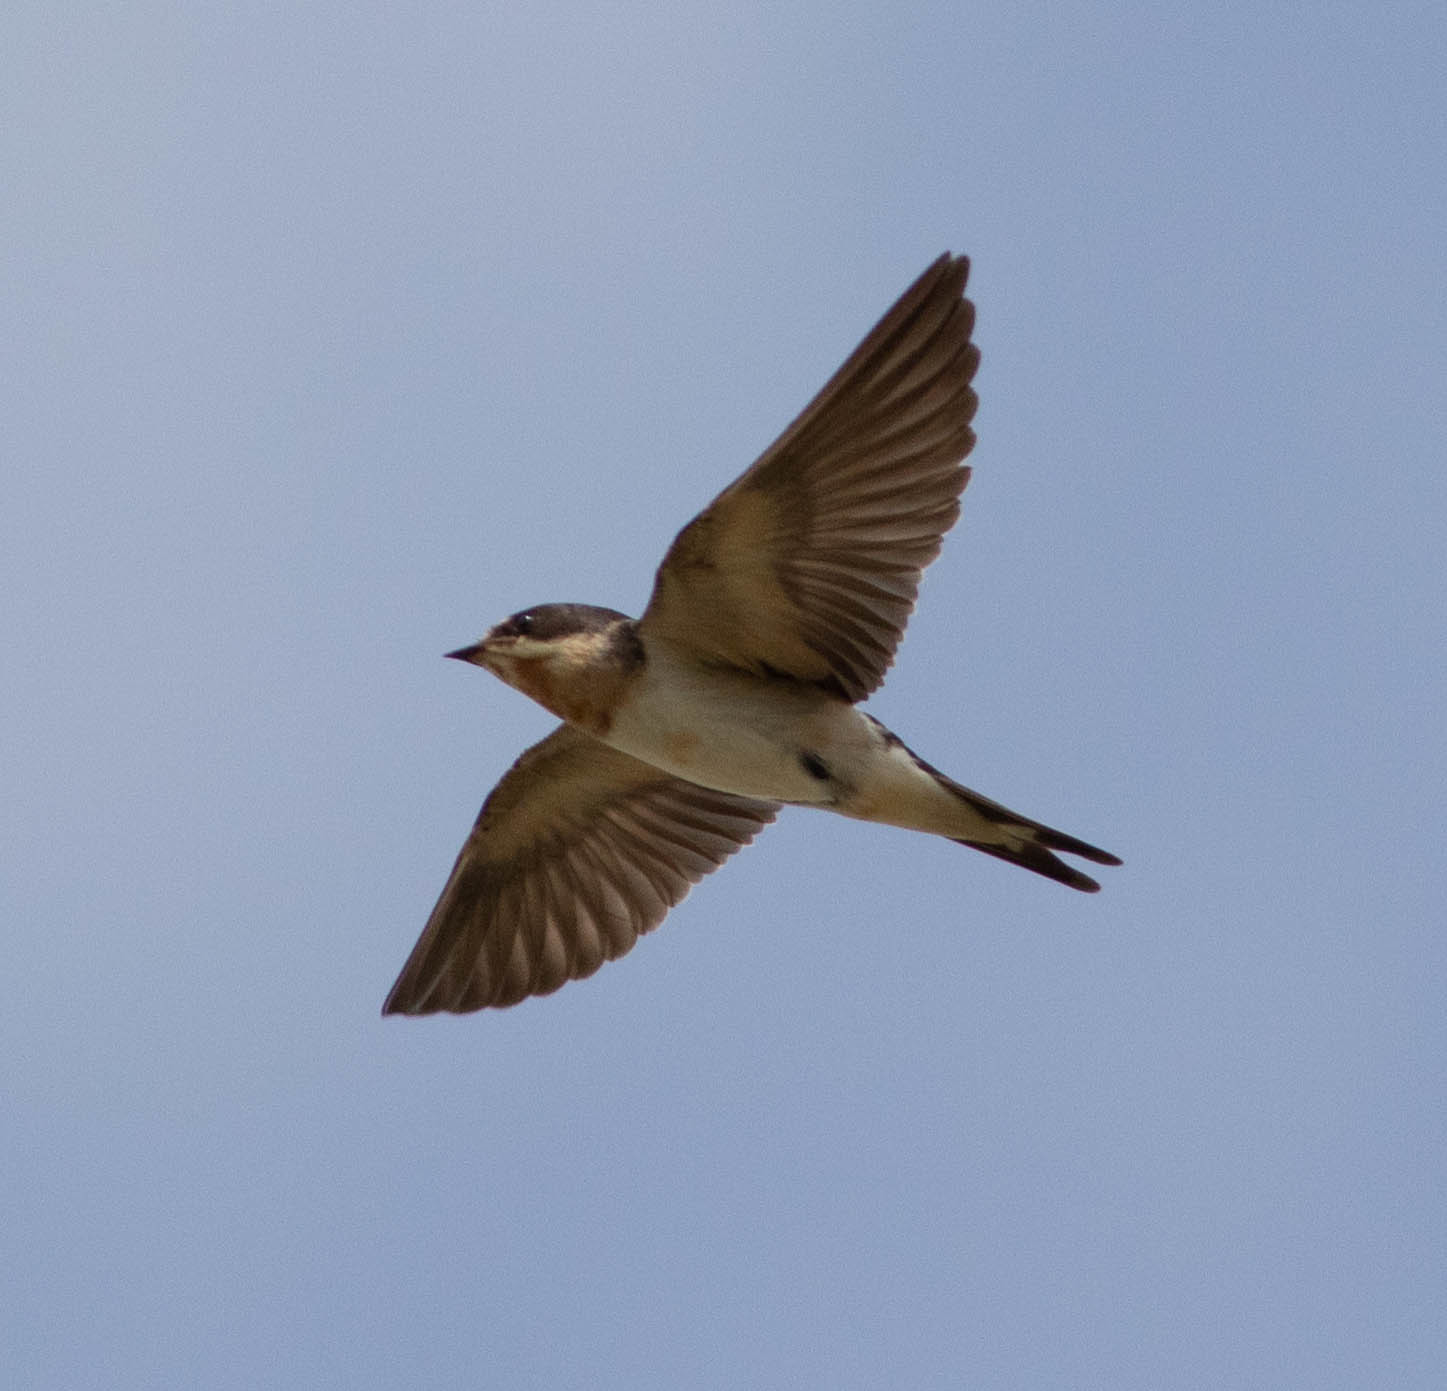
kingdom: Animalia
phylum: Chordata
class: Aves
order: Passeriformes
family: Hirundinidae
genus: Hirundo
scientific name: Hirundo rustica
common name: Barn swallow
